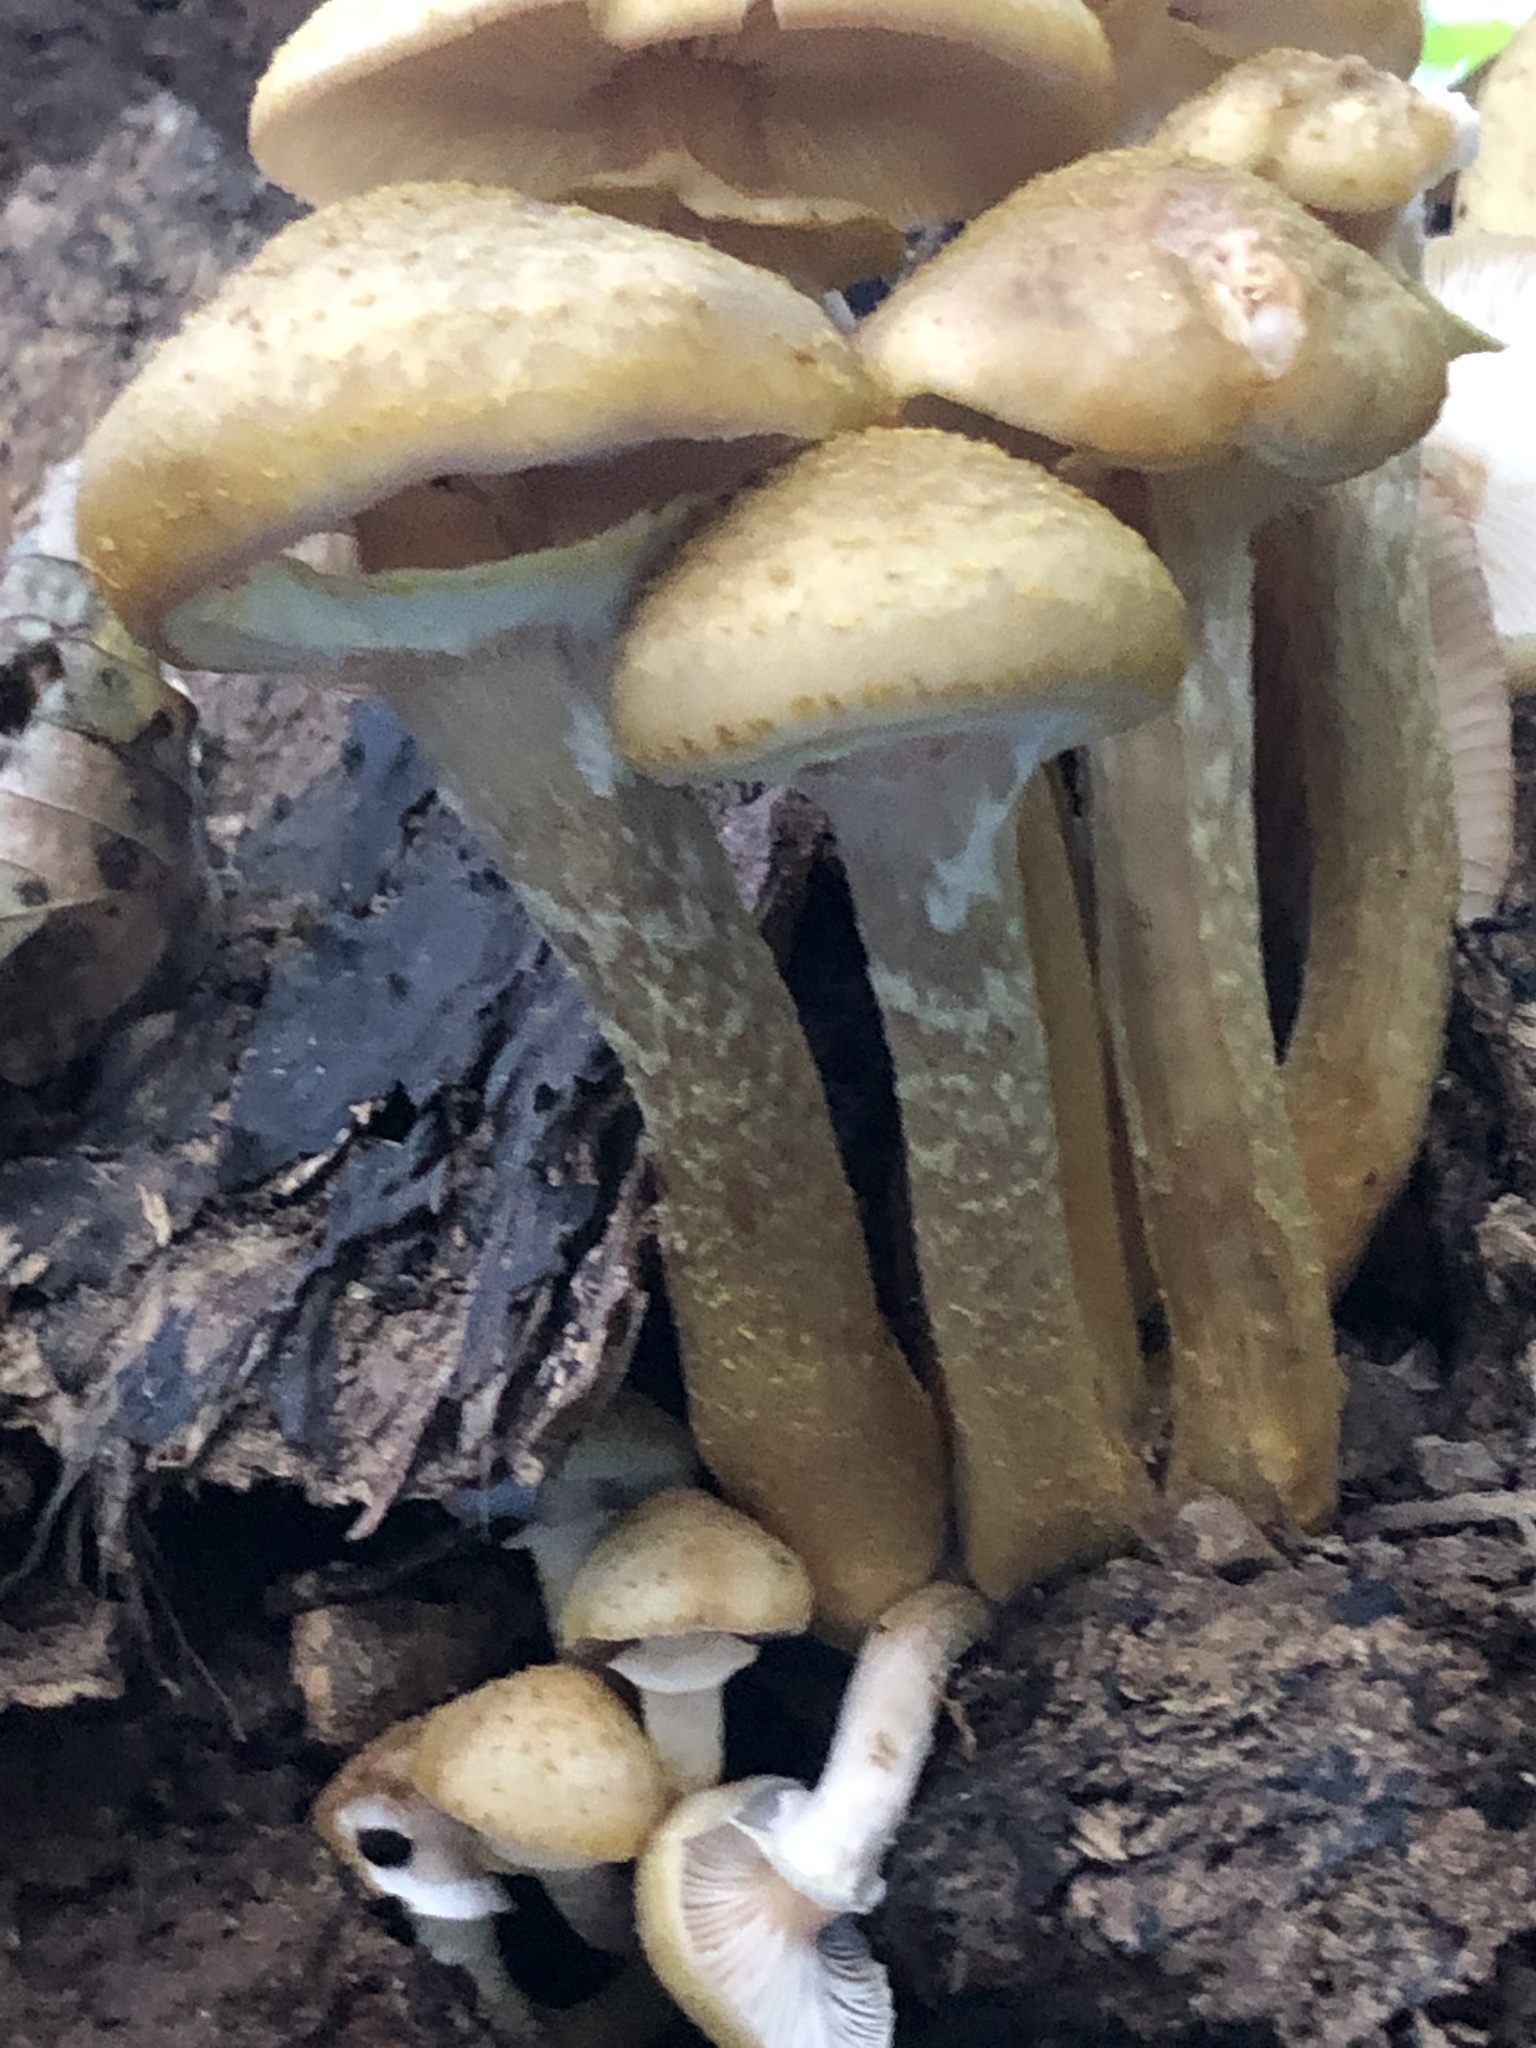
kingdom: Fungi
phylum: Basidiomycota
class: Agaricomycetes
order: Agaricales
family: Physalacriaceae
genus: Armillaria
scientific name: Armillaria mellea
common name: Honey fungus
